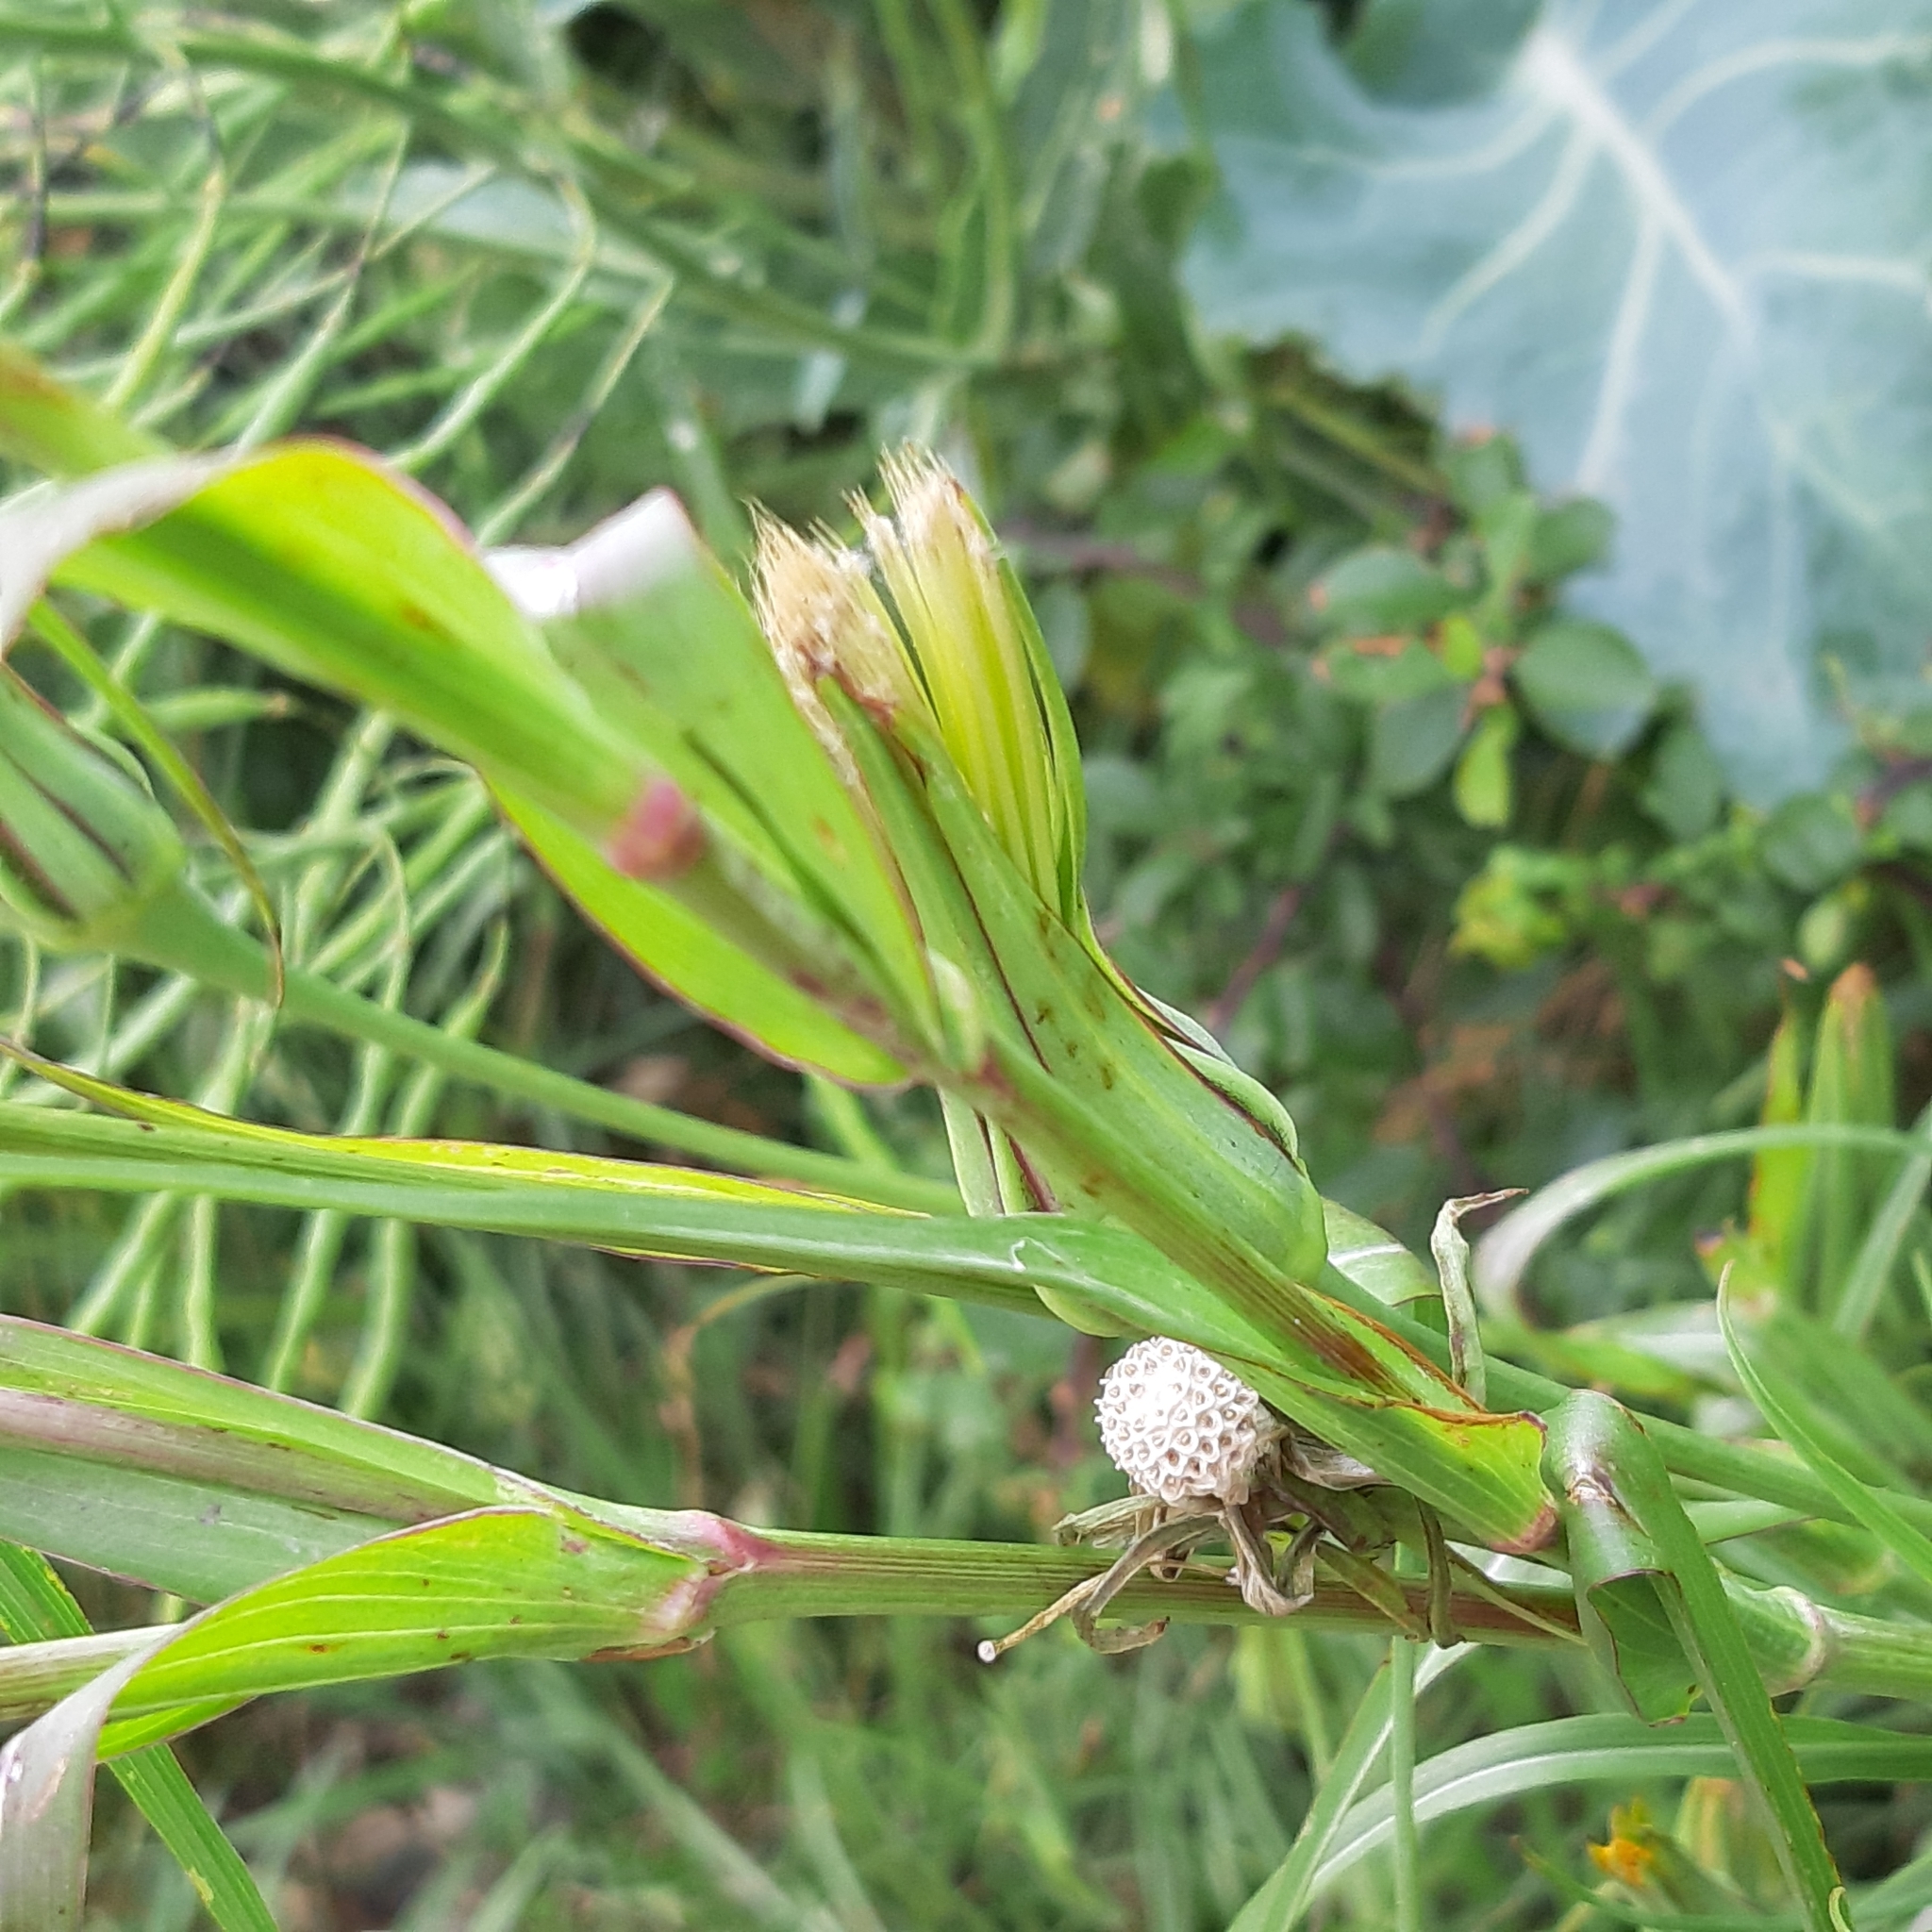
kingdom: Plantae
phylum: Tracheophyta
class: Magnoliopsida
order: Asterales
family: Asteraceae
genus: Tragopogon
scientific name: Tragopogon pratensis
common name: Goat's-beard
